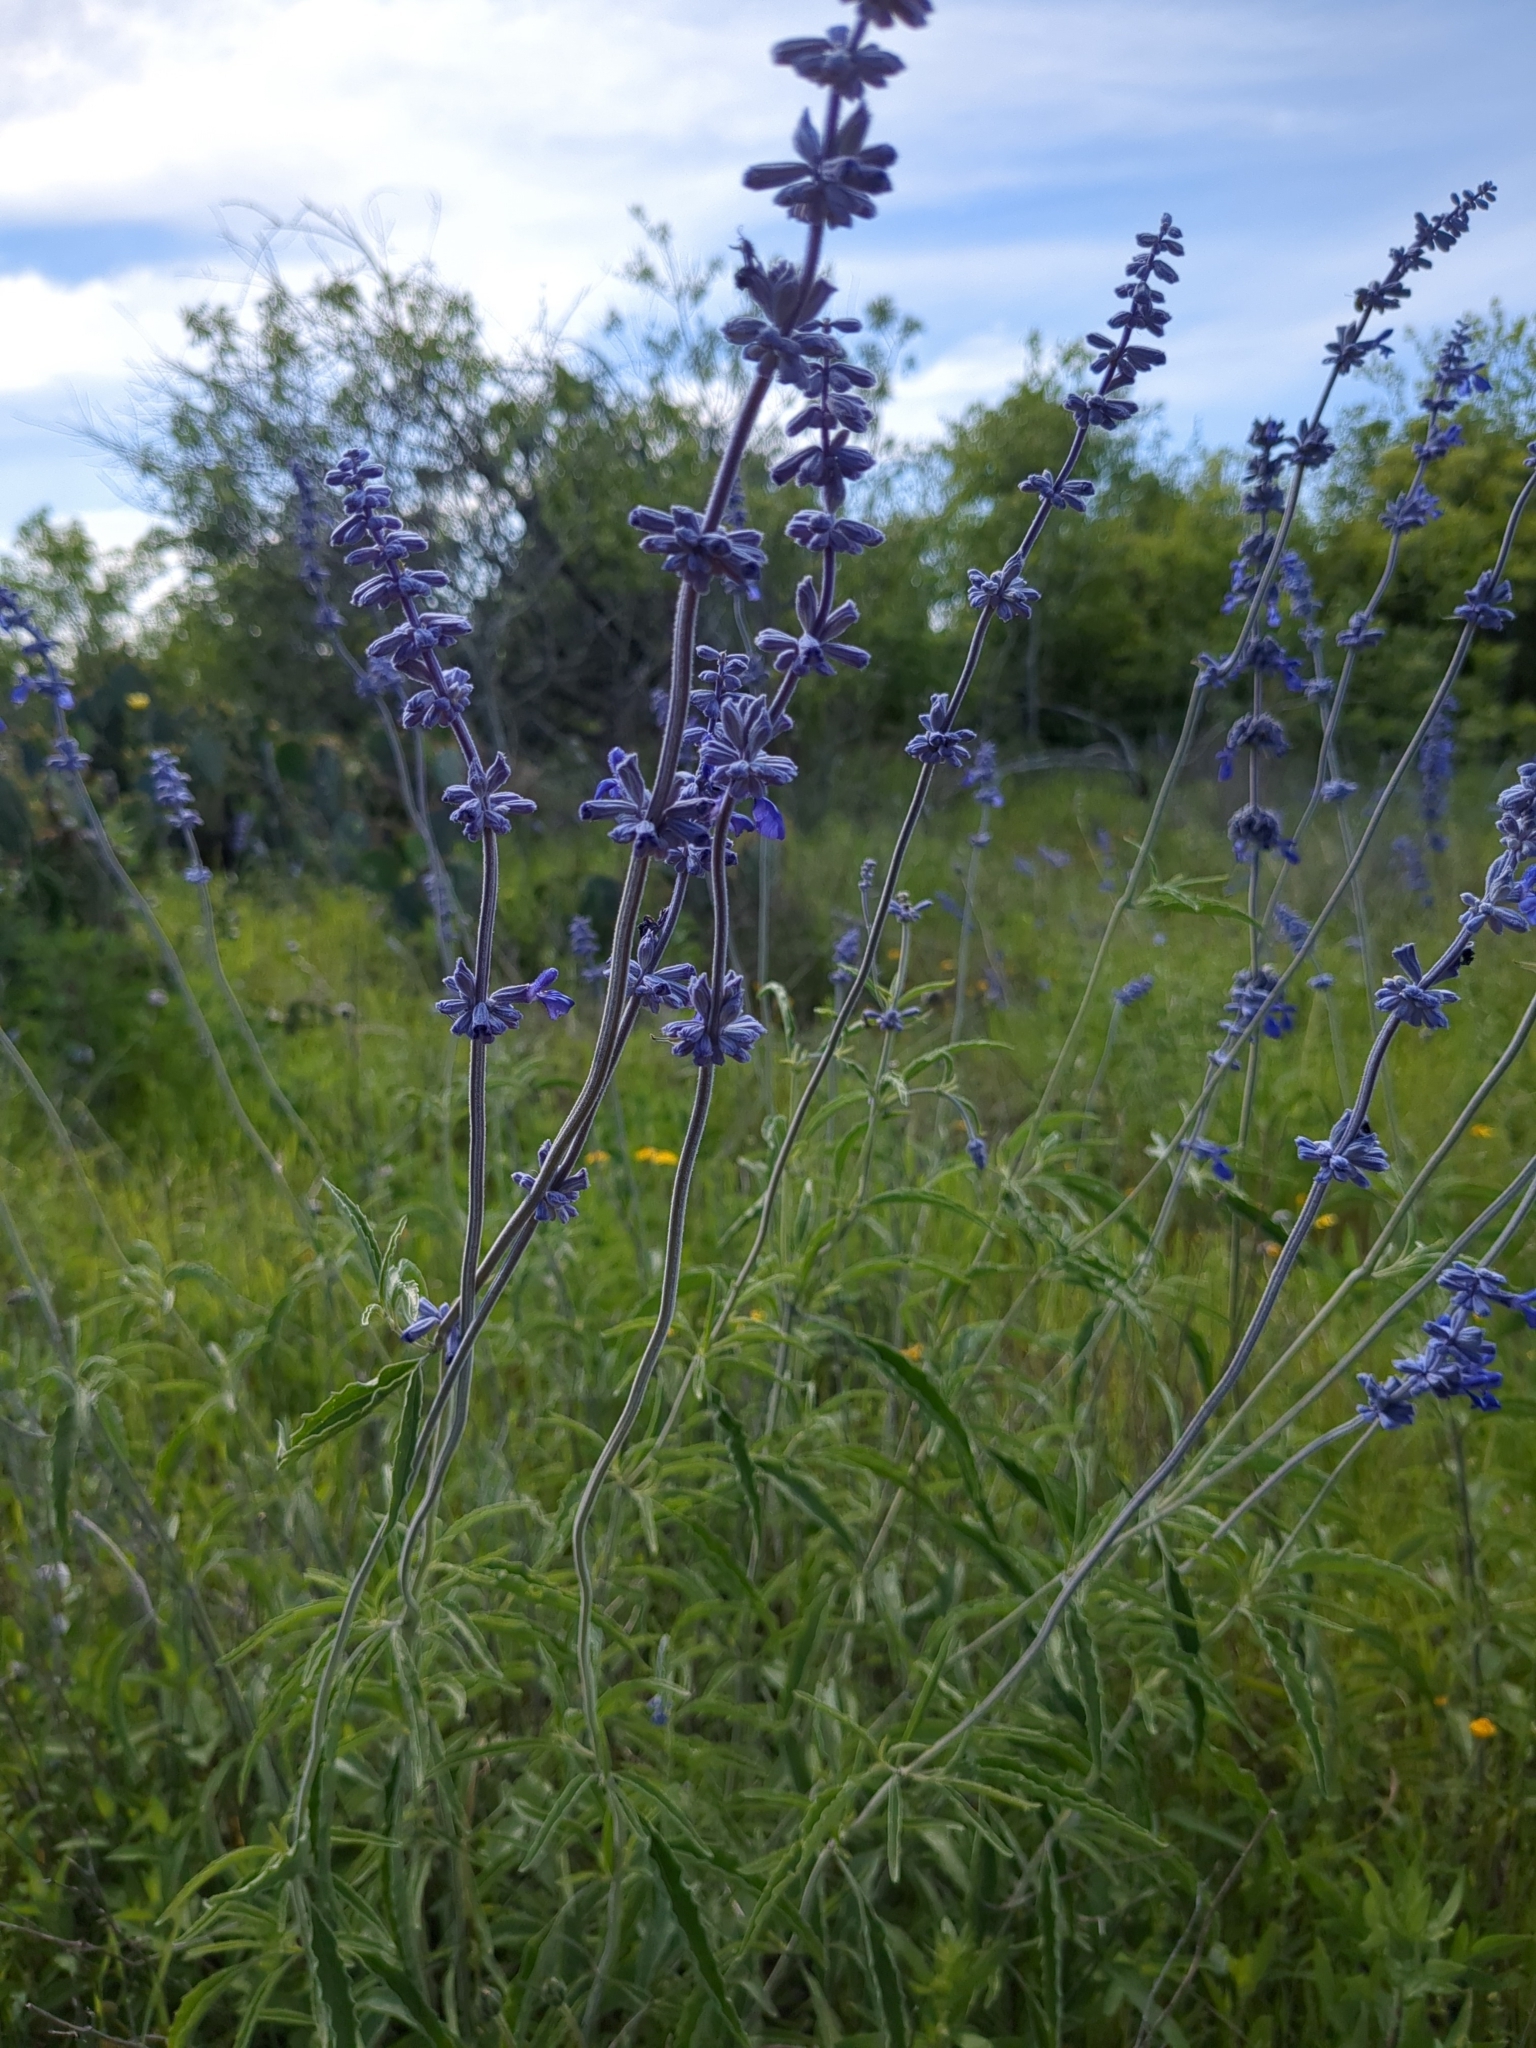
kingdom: Plantae
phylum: Tracheophyta
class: Magnoliopsida
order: Lamiales
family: Lamiaceae
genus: Salvia
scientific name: Salvia farinacea
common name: Mealy sage
